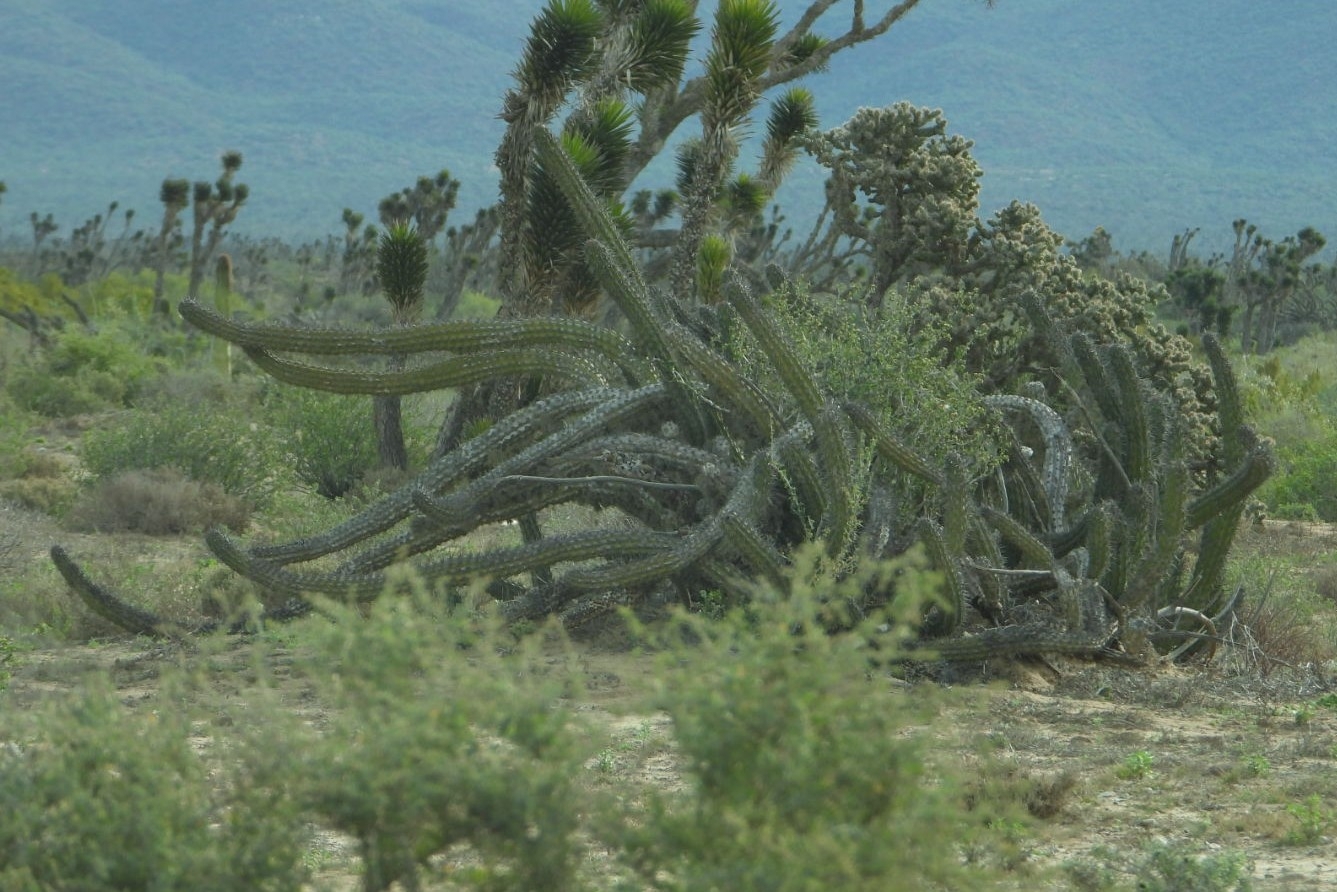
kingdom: Plantae
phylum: Tracheophyta
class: Magnoliopsida
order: Caryophyllales
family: Cactaceae
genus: Stenocereus
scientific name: Stenocereus gummosus
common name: Dagger cactus
